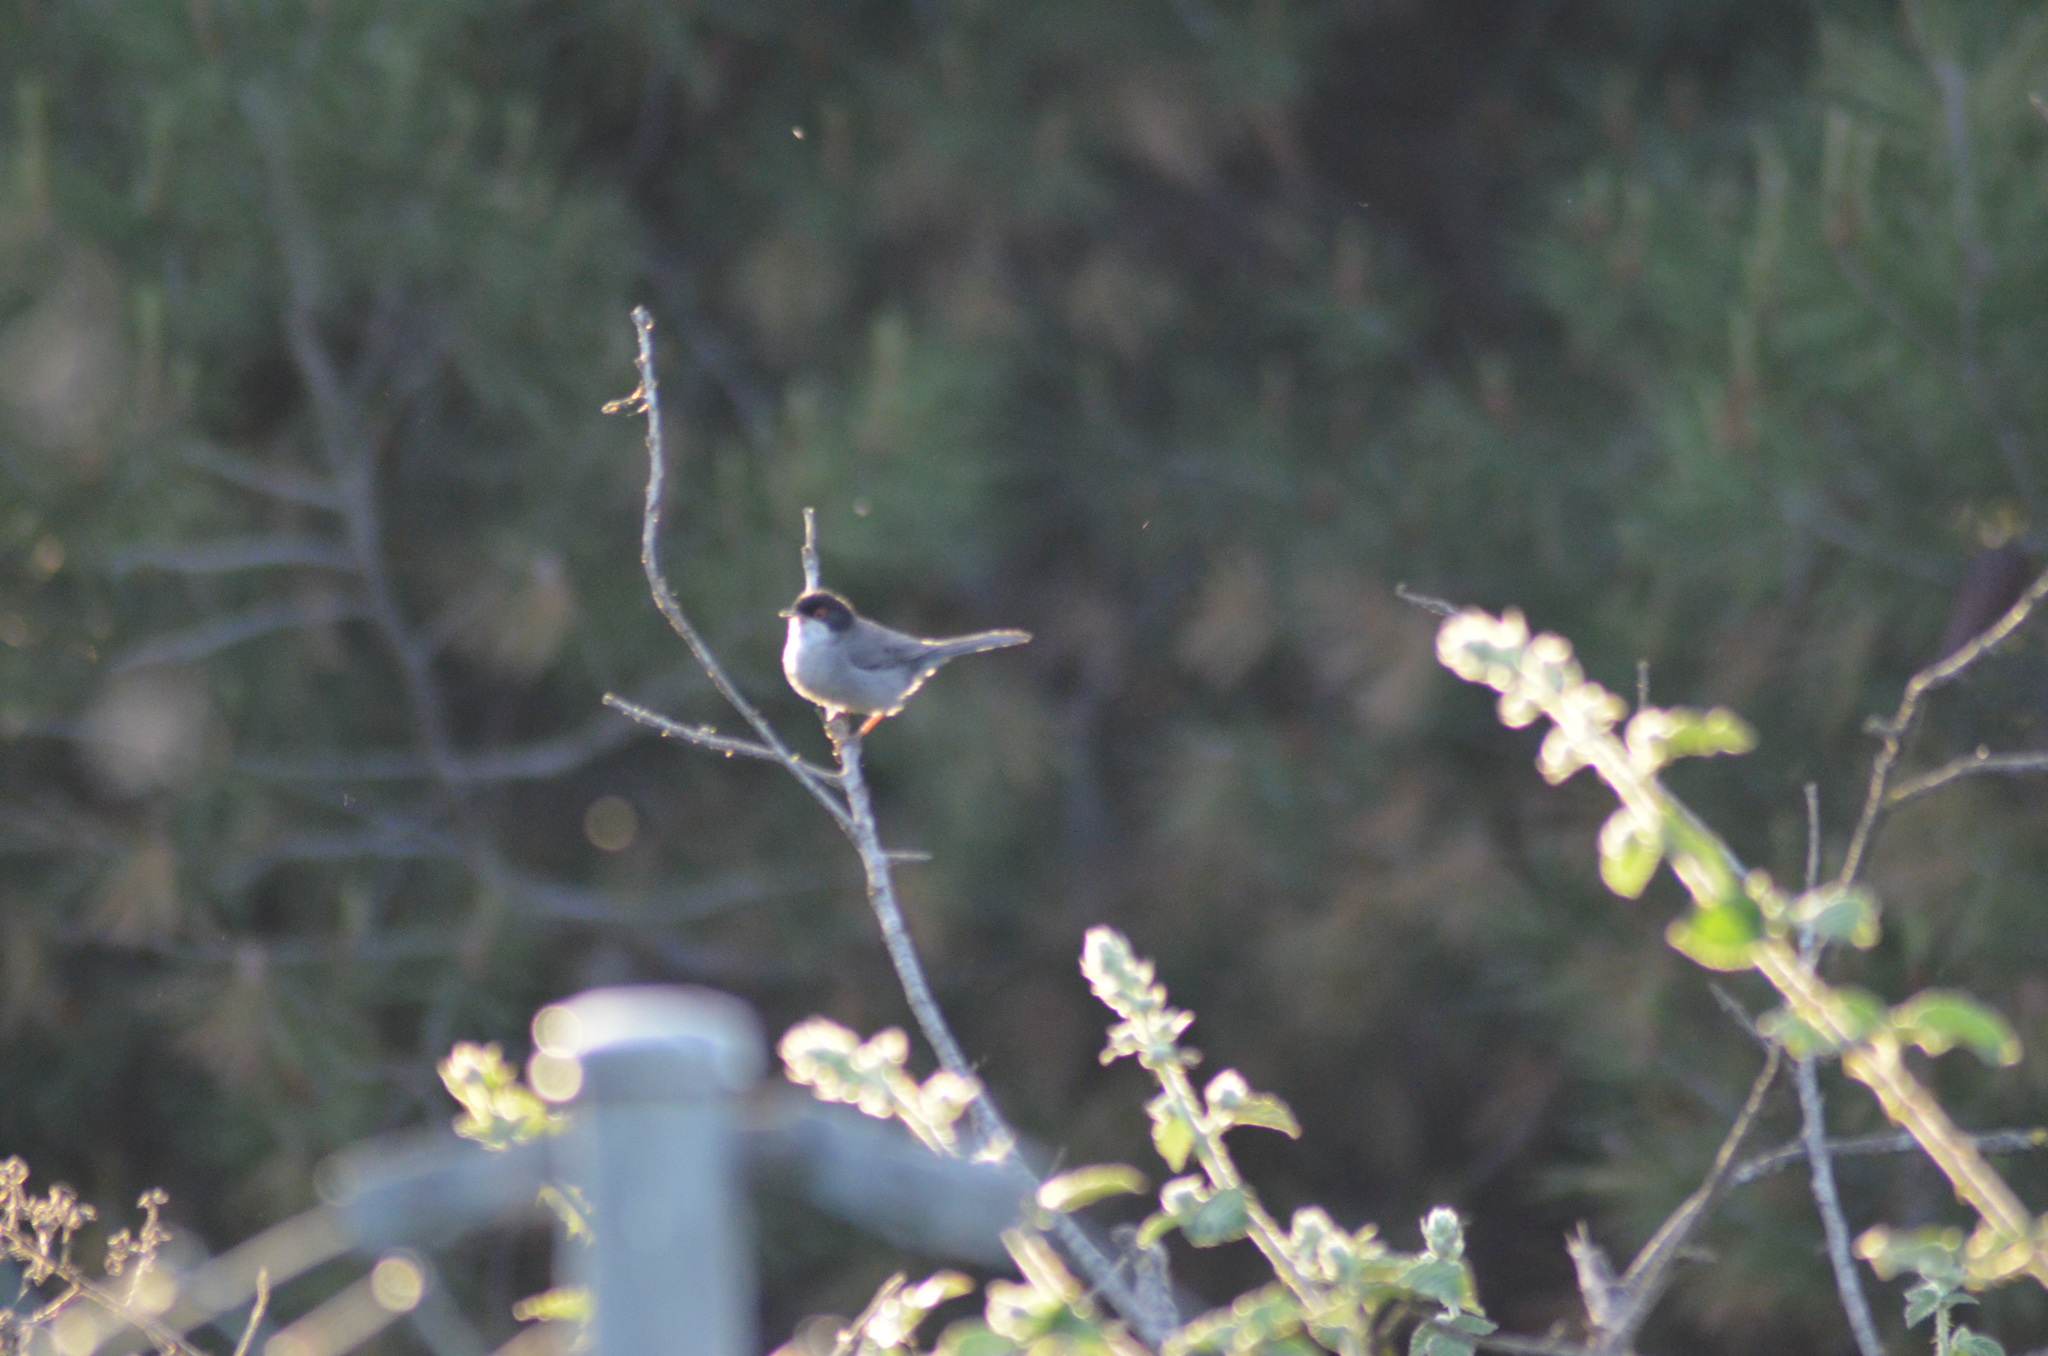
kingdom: Animalia
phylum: Chordata
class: Aves
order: Passeriformes
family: Sylviidae
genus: Curruca
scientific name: Curruca melanocephala
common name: Sardinian warbler
